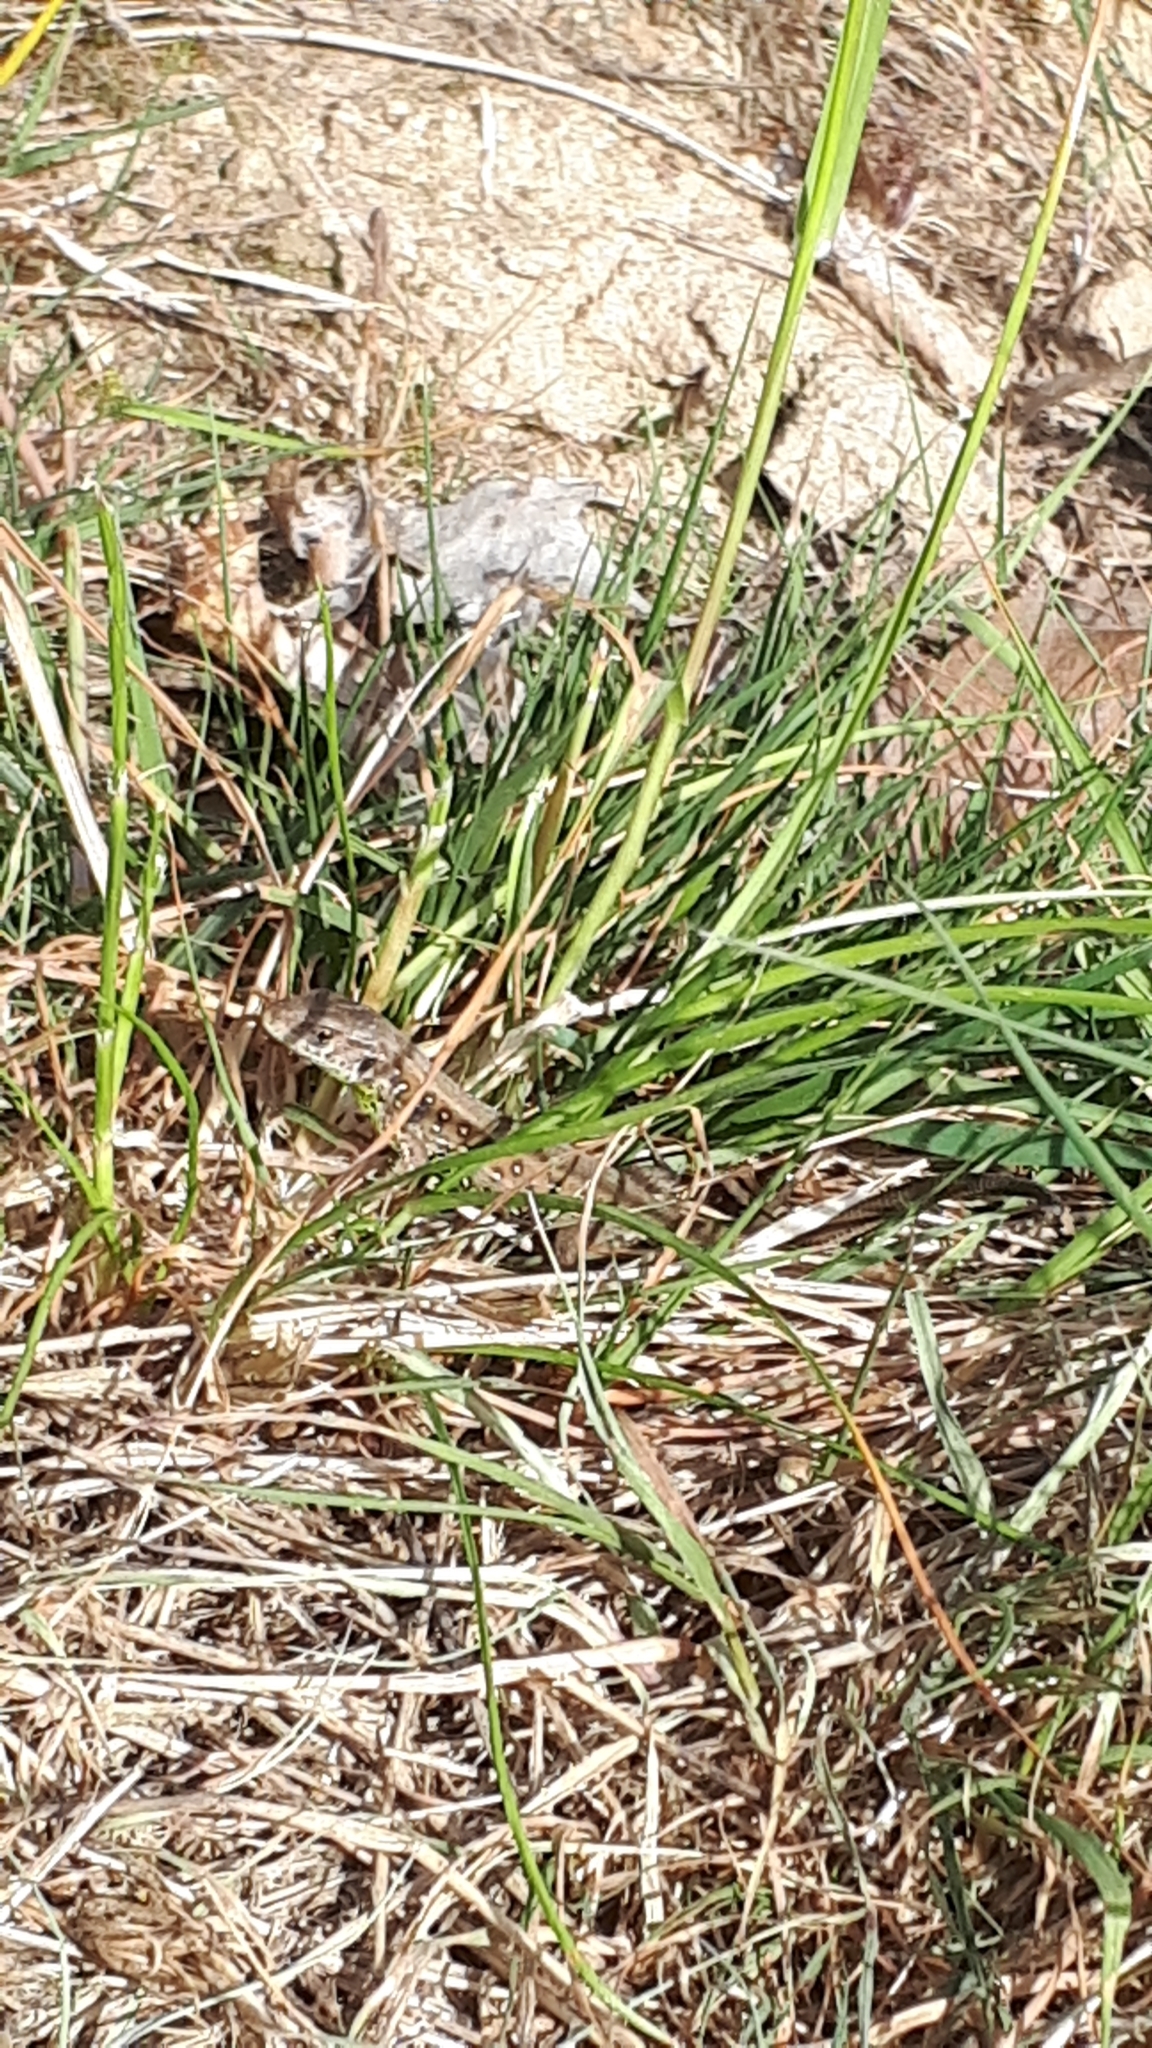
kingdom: Animalia
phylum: Chordata
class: Squamata
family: Lacertidae
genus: Lacerta
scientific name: Lacerta agilis
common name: Sand lizard
